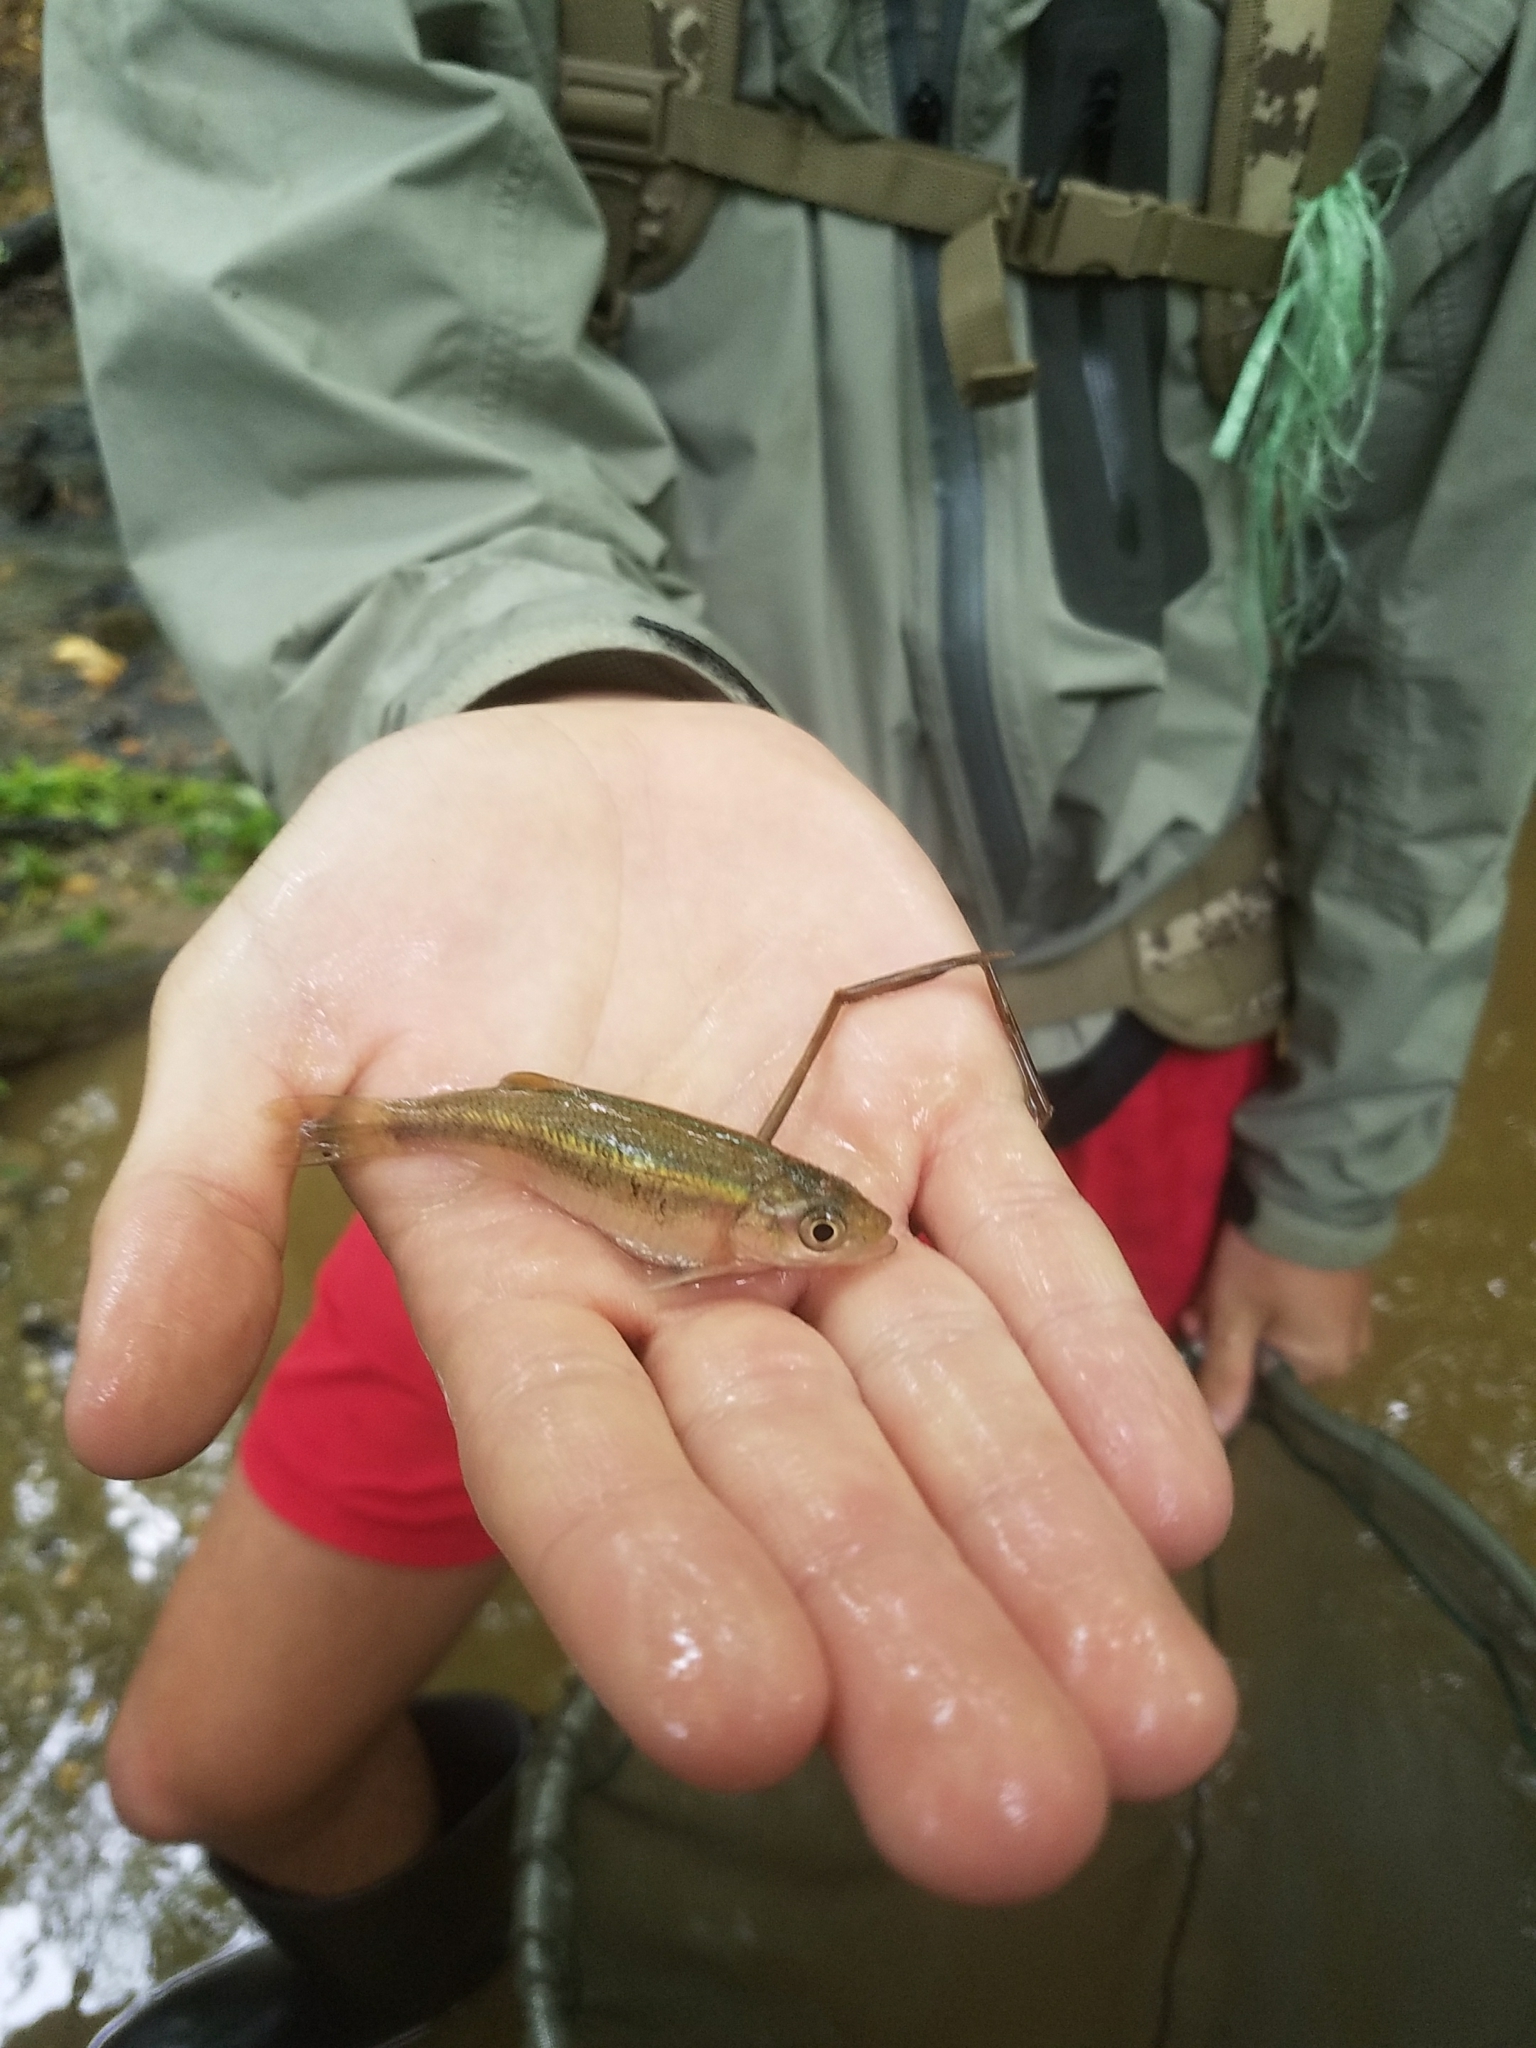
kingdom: Animalia
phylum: Chordata
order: Cypriniformes
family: Cyprinidae
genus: Clinostomus
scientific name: Clinostomus funduloides
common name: Rosyside dace
